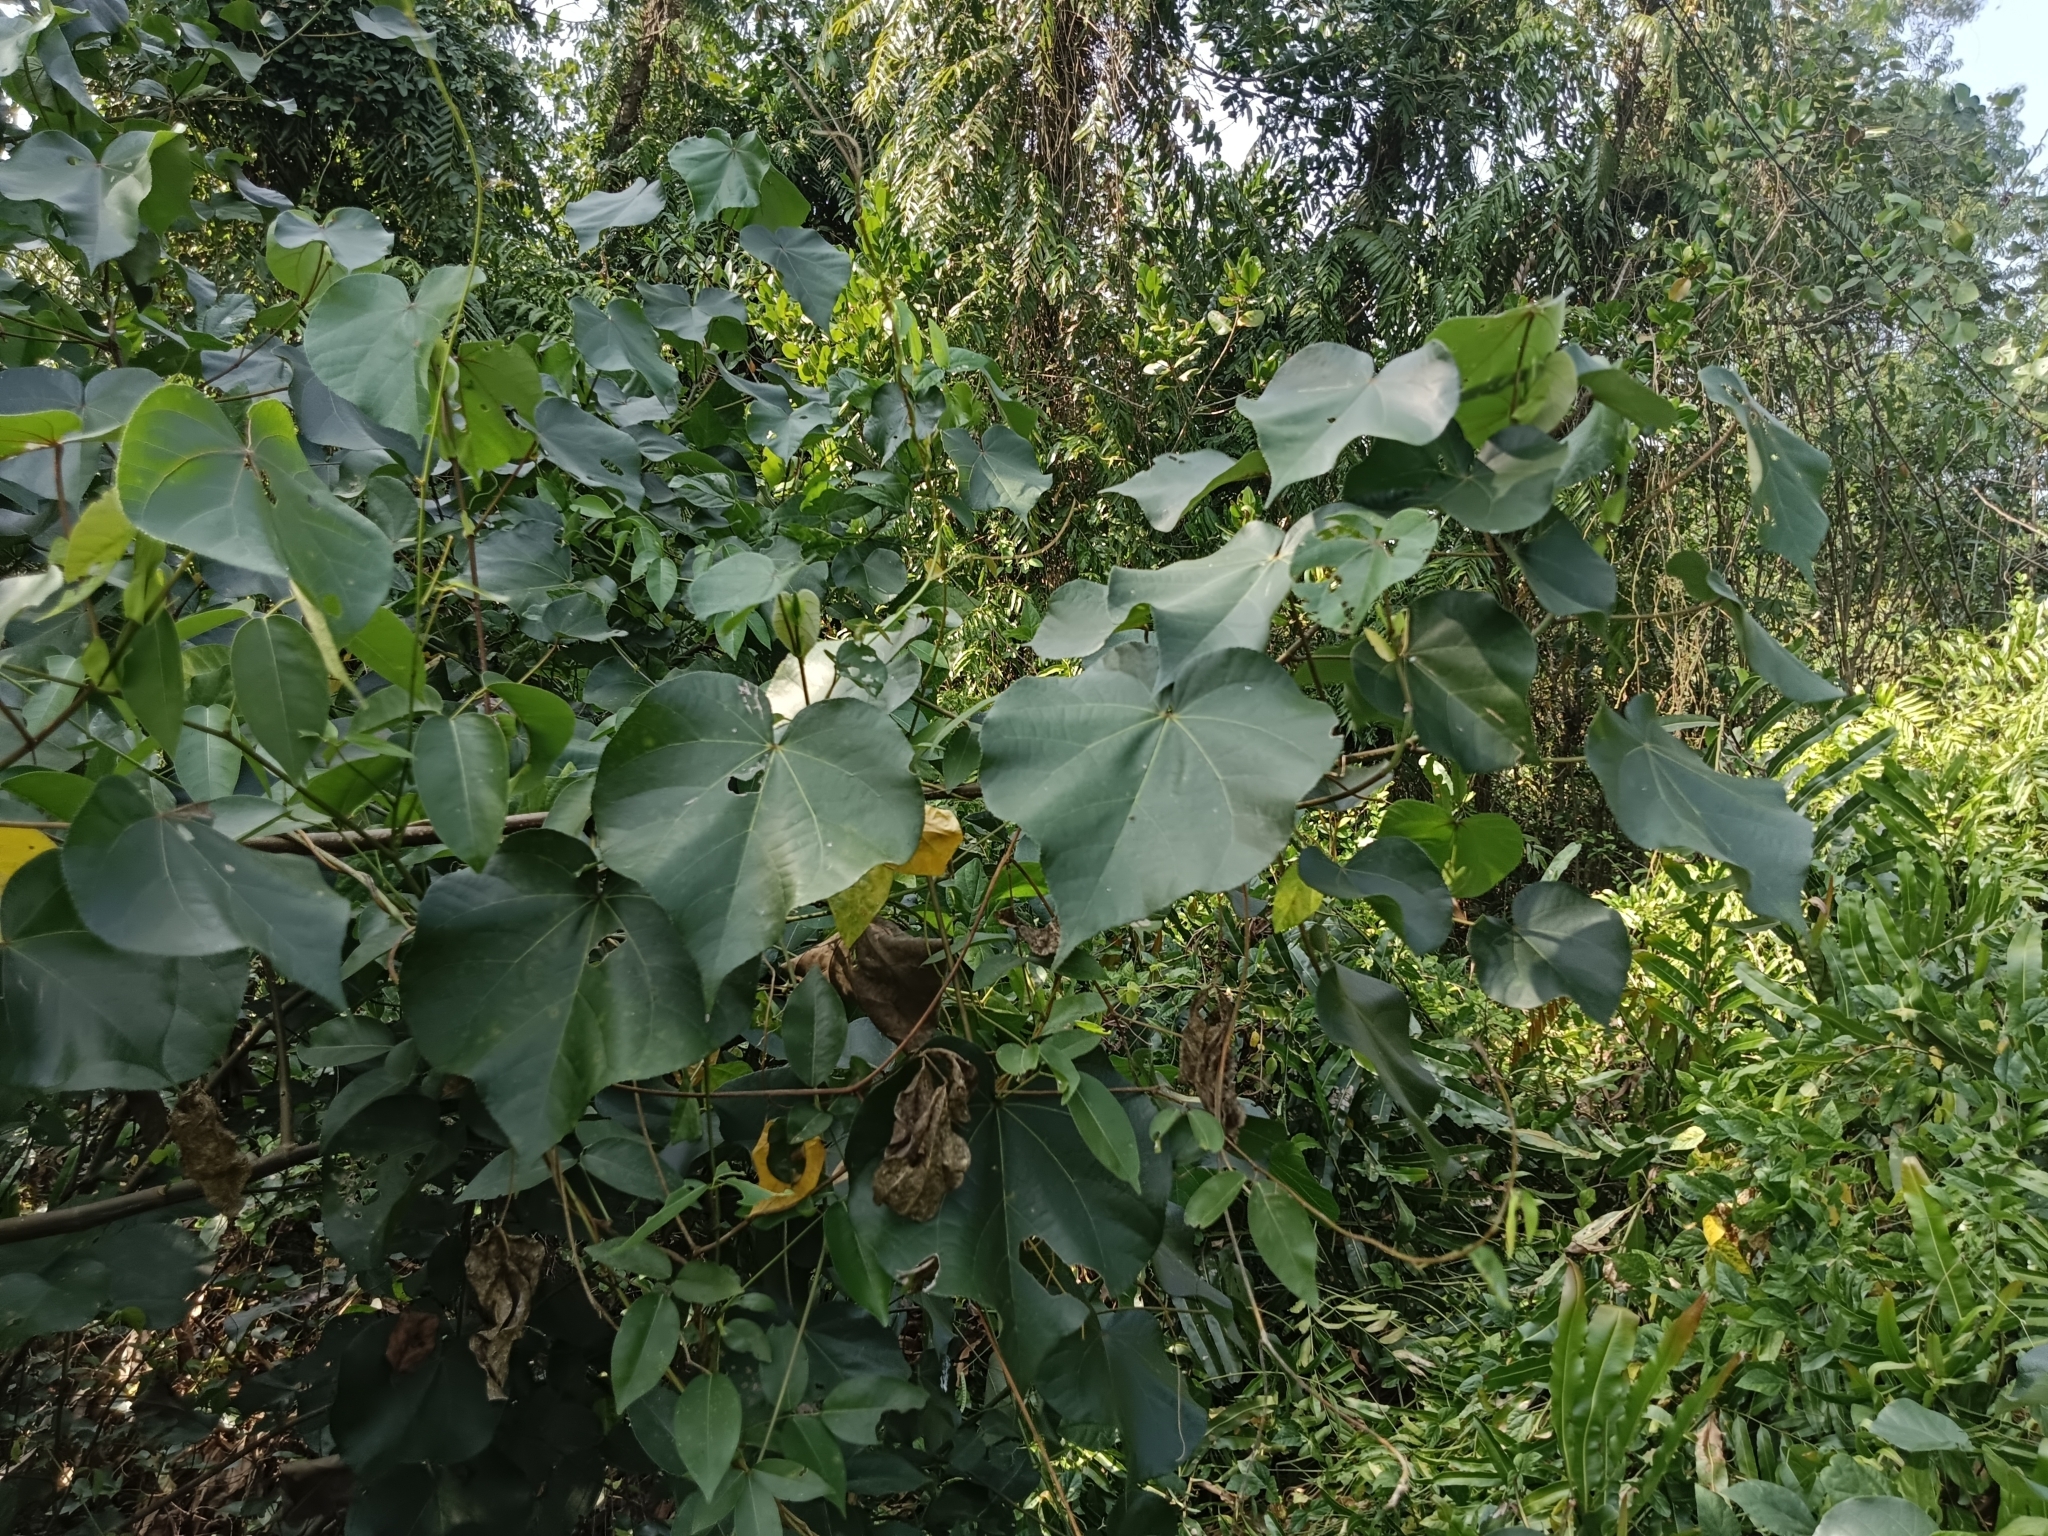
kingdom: Plantae
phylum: Tracheophyta
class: Magnoliopsida
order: Malvales
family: Malvaceae
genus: Thespesia
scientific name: Thespesia populnea
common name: Seaside mahoe
